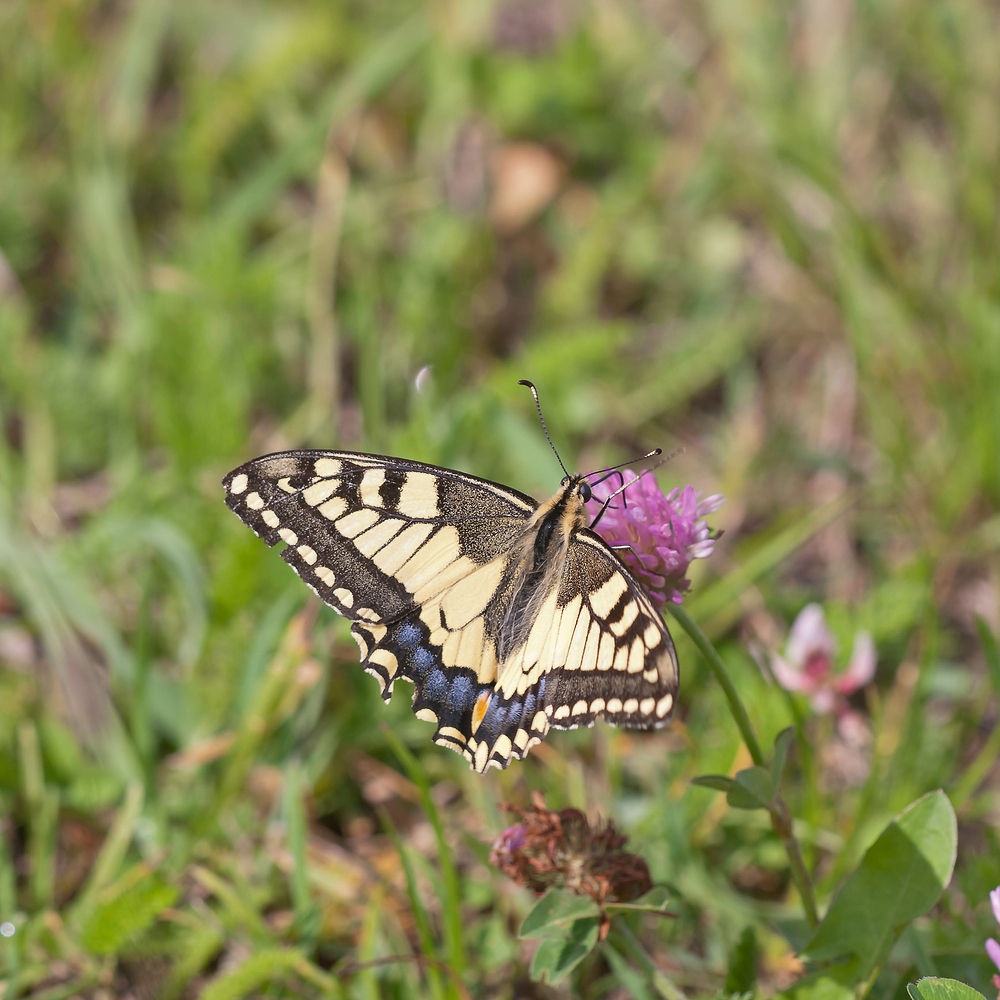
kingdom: Animalia
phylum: Arthropoda
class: Insecta
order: Lepidoptera
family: Papilionidae
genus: Papilio
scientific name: Papilio machaon
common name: Swallowtail
